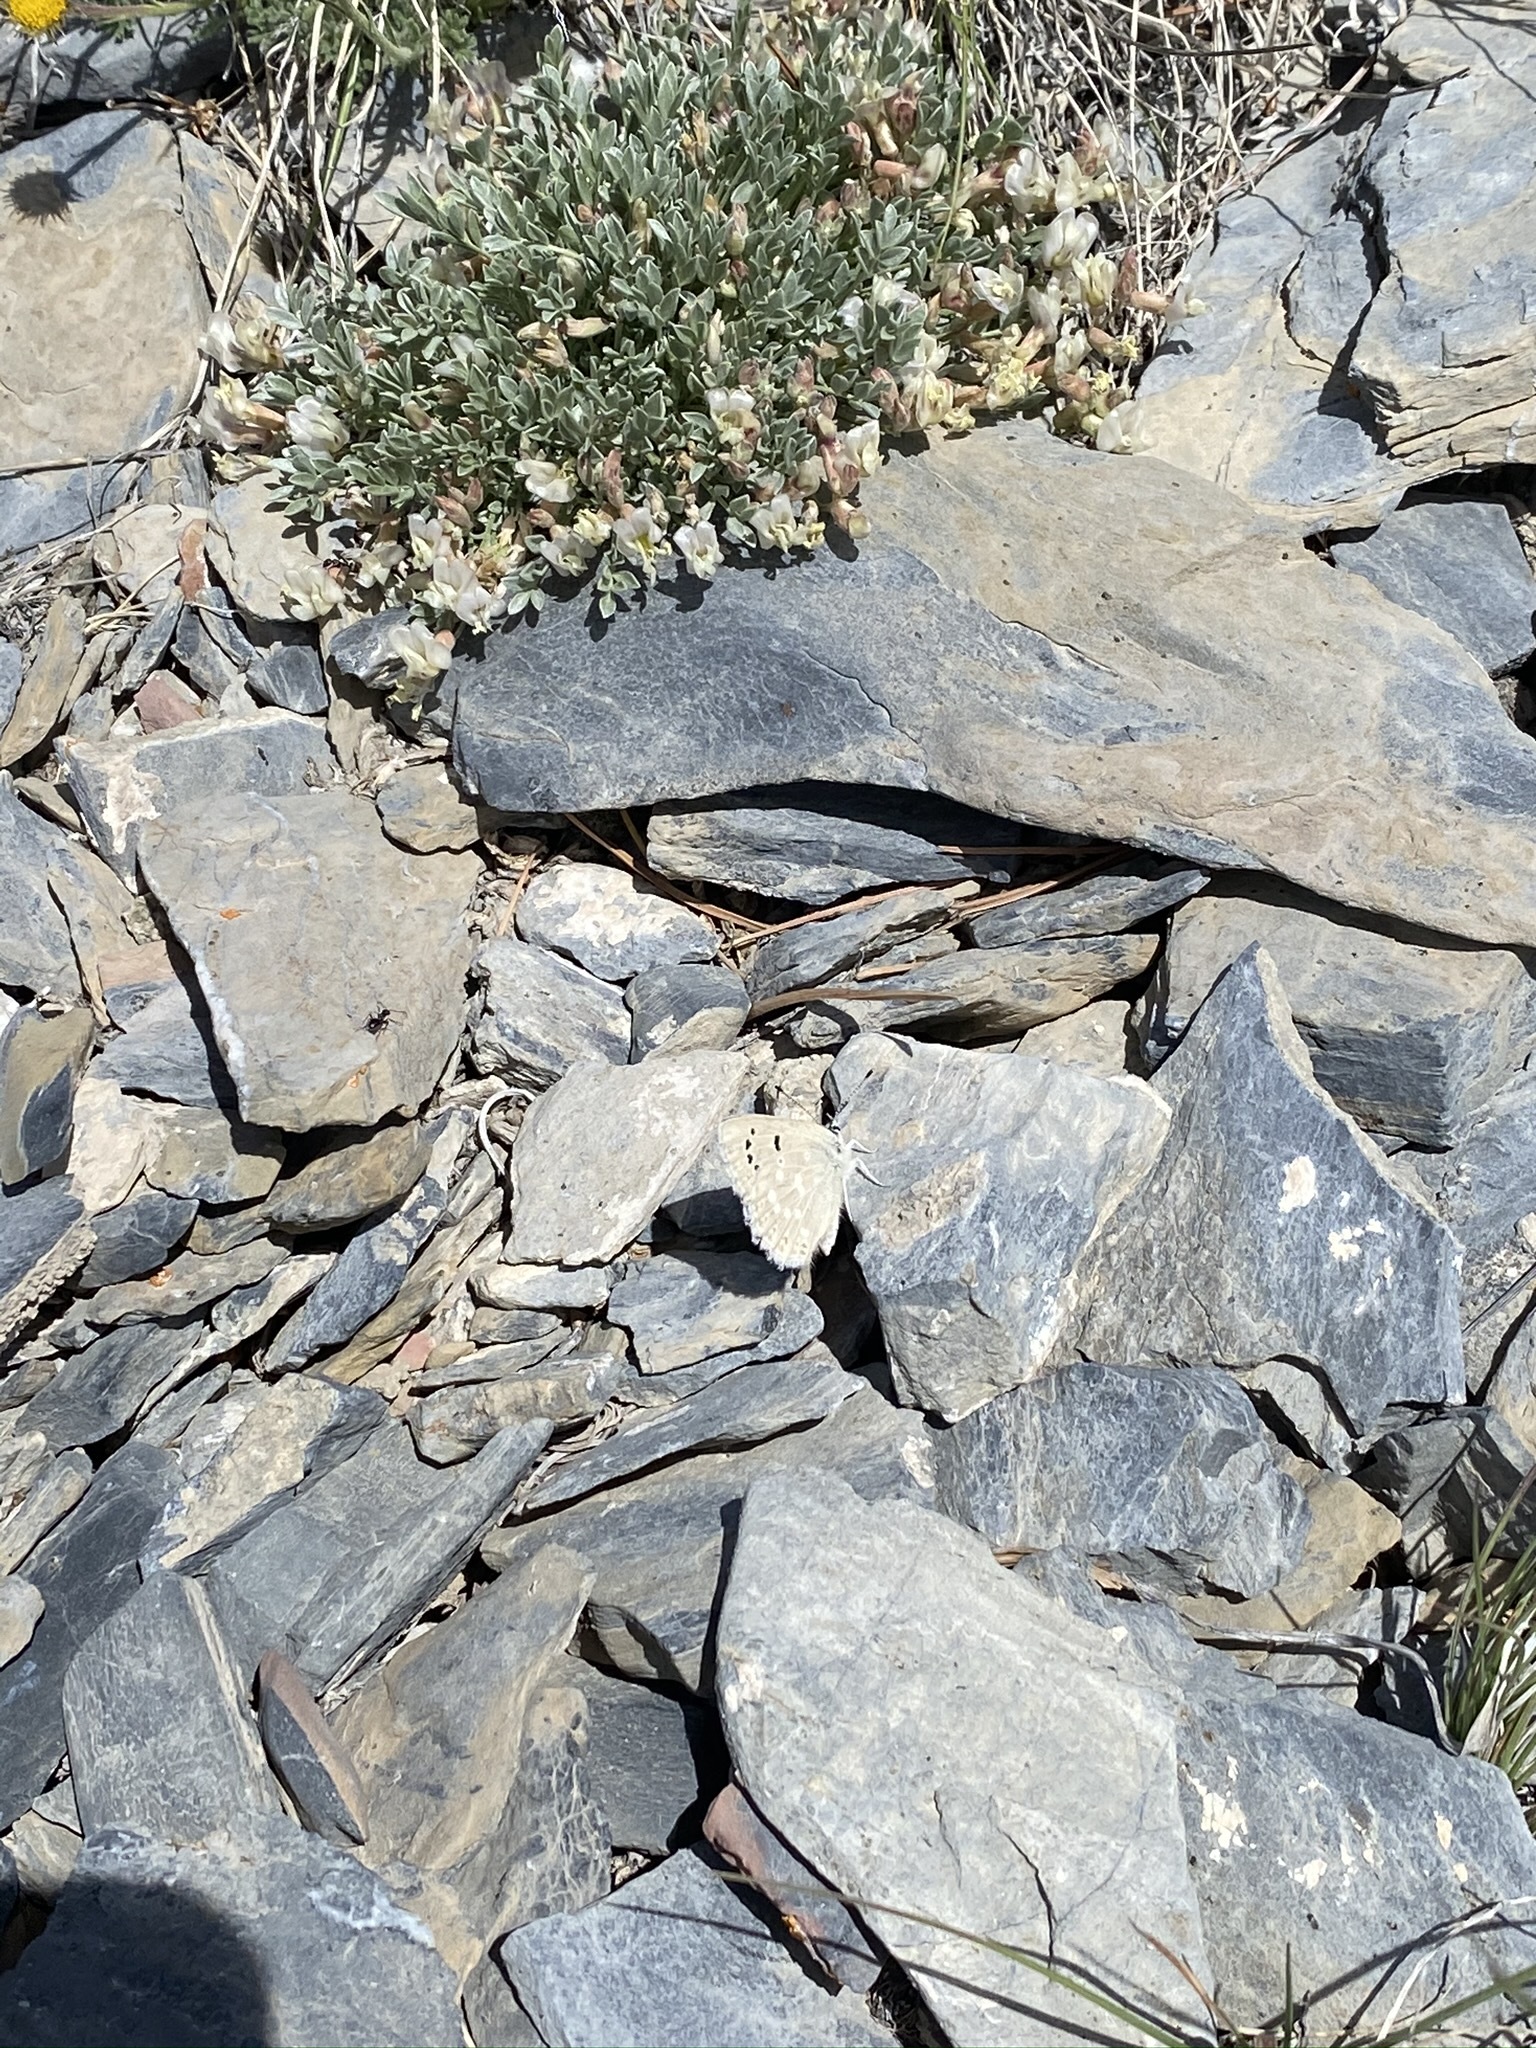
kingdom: Animalia
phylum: Arthropoda
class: Insecta
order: Lepidoptera
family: Lycaenidae
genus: Icaricia
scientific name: Icaricia icarioides
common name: Boisduval's blue
